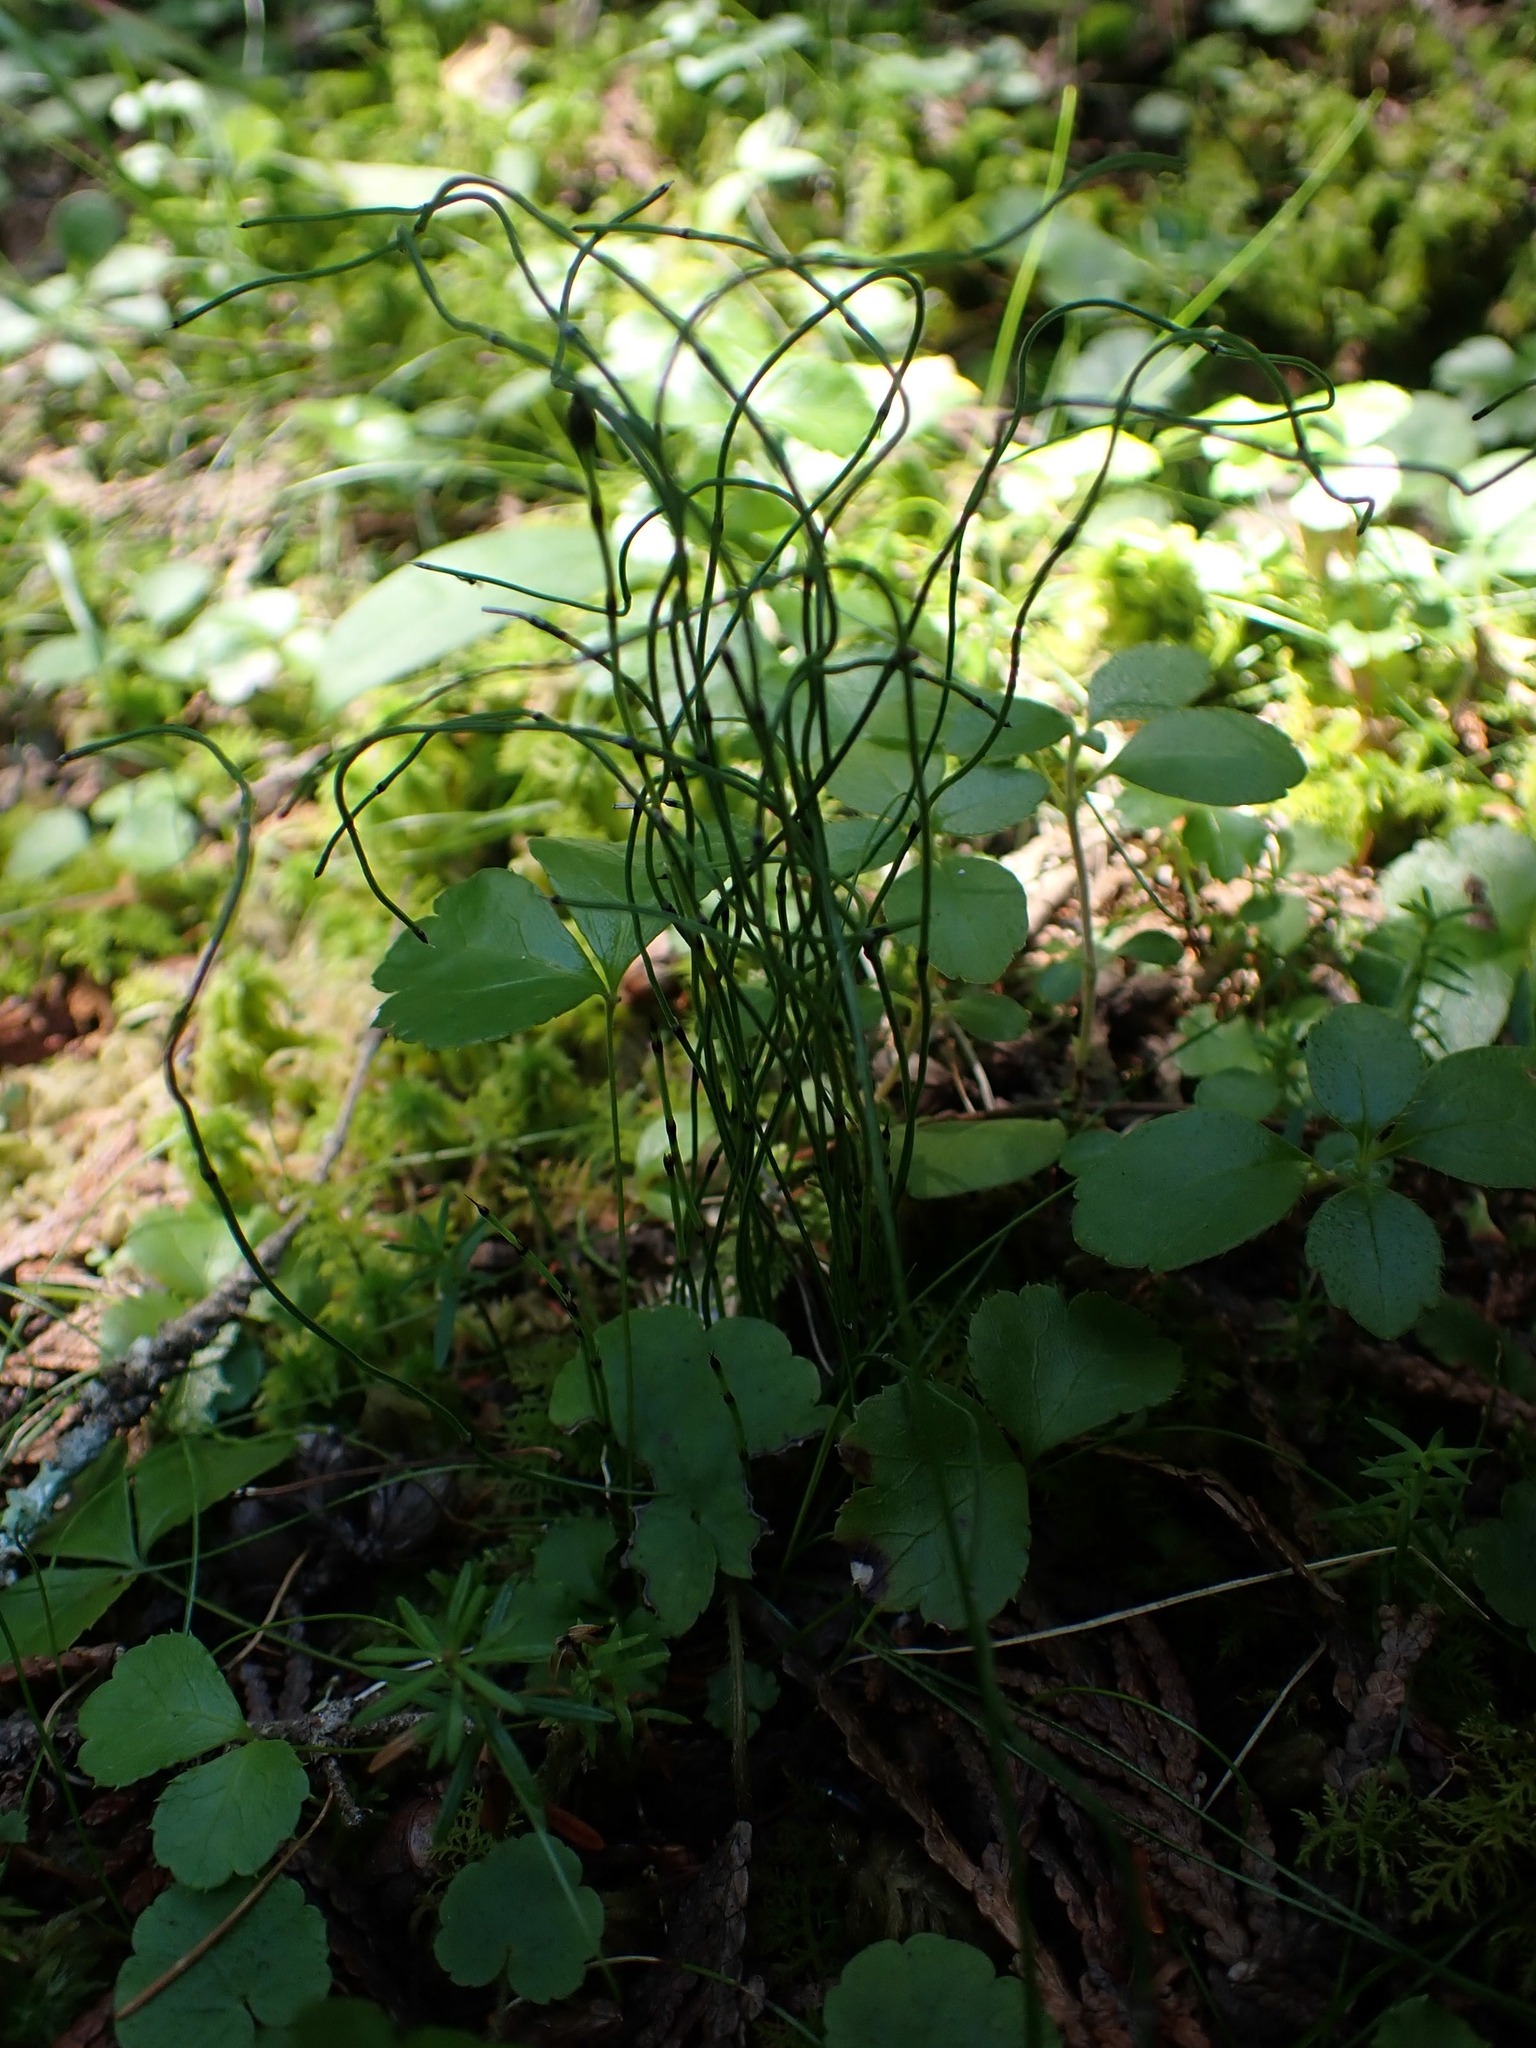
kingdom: Plantae
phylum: Tracheophyta
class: Polypodiopsida
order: Equisetales
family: Equisetaceae
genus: Equisetum
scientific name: Equisetum scirpoides
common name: Delicate horsetail
